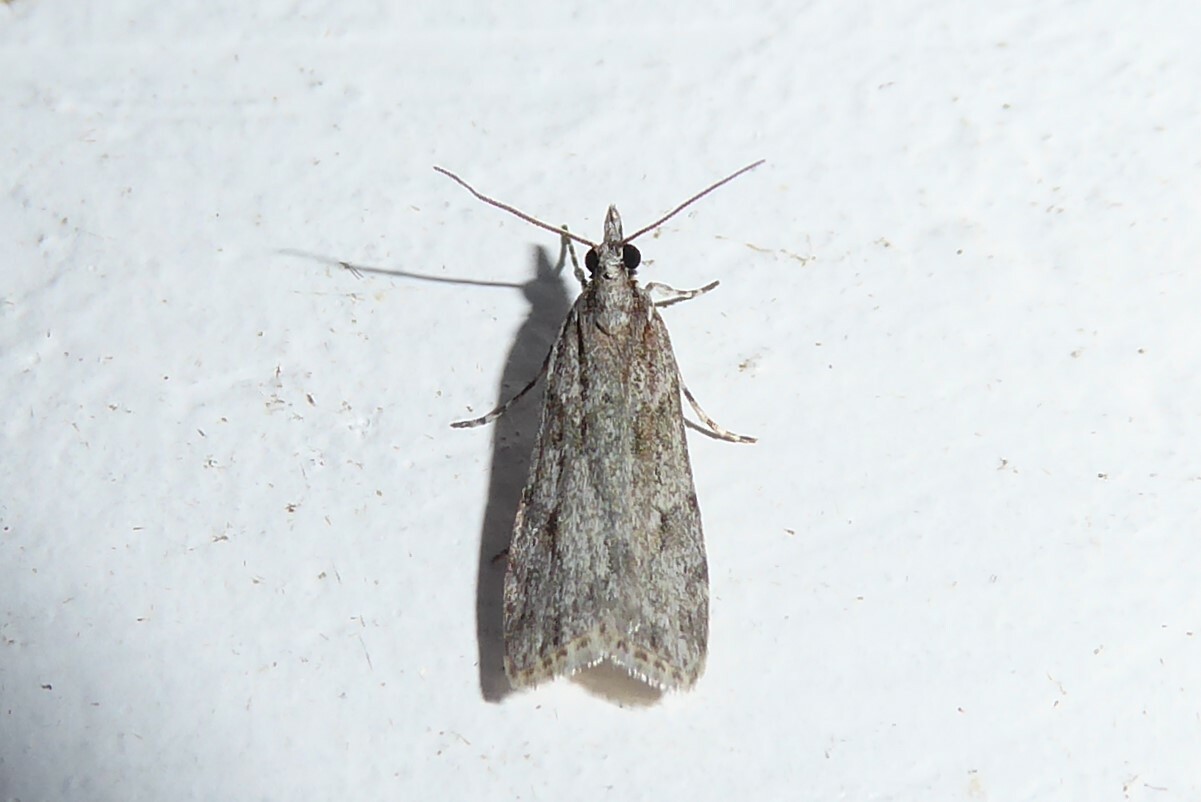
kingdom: Animalia
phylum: Arthropoda
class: Insecta
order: Lepidoptera
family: Crambidae
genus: Scoparia
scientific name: Scoparia chalicodes
